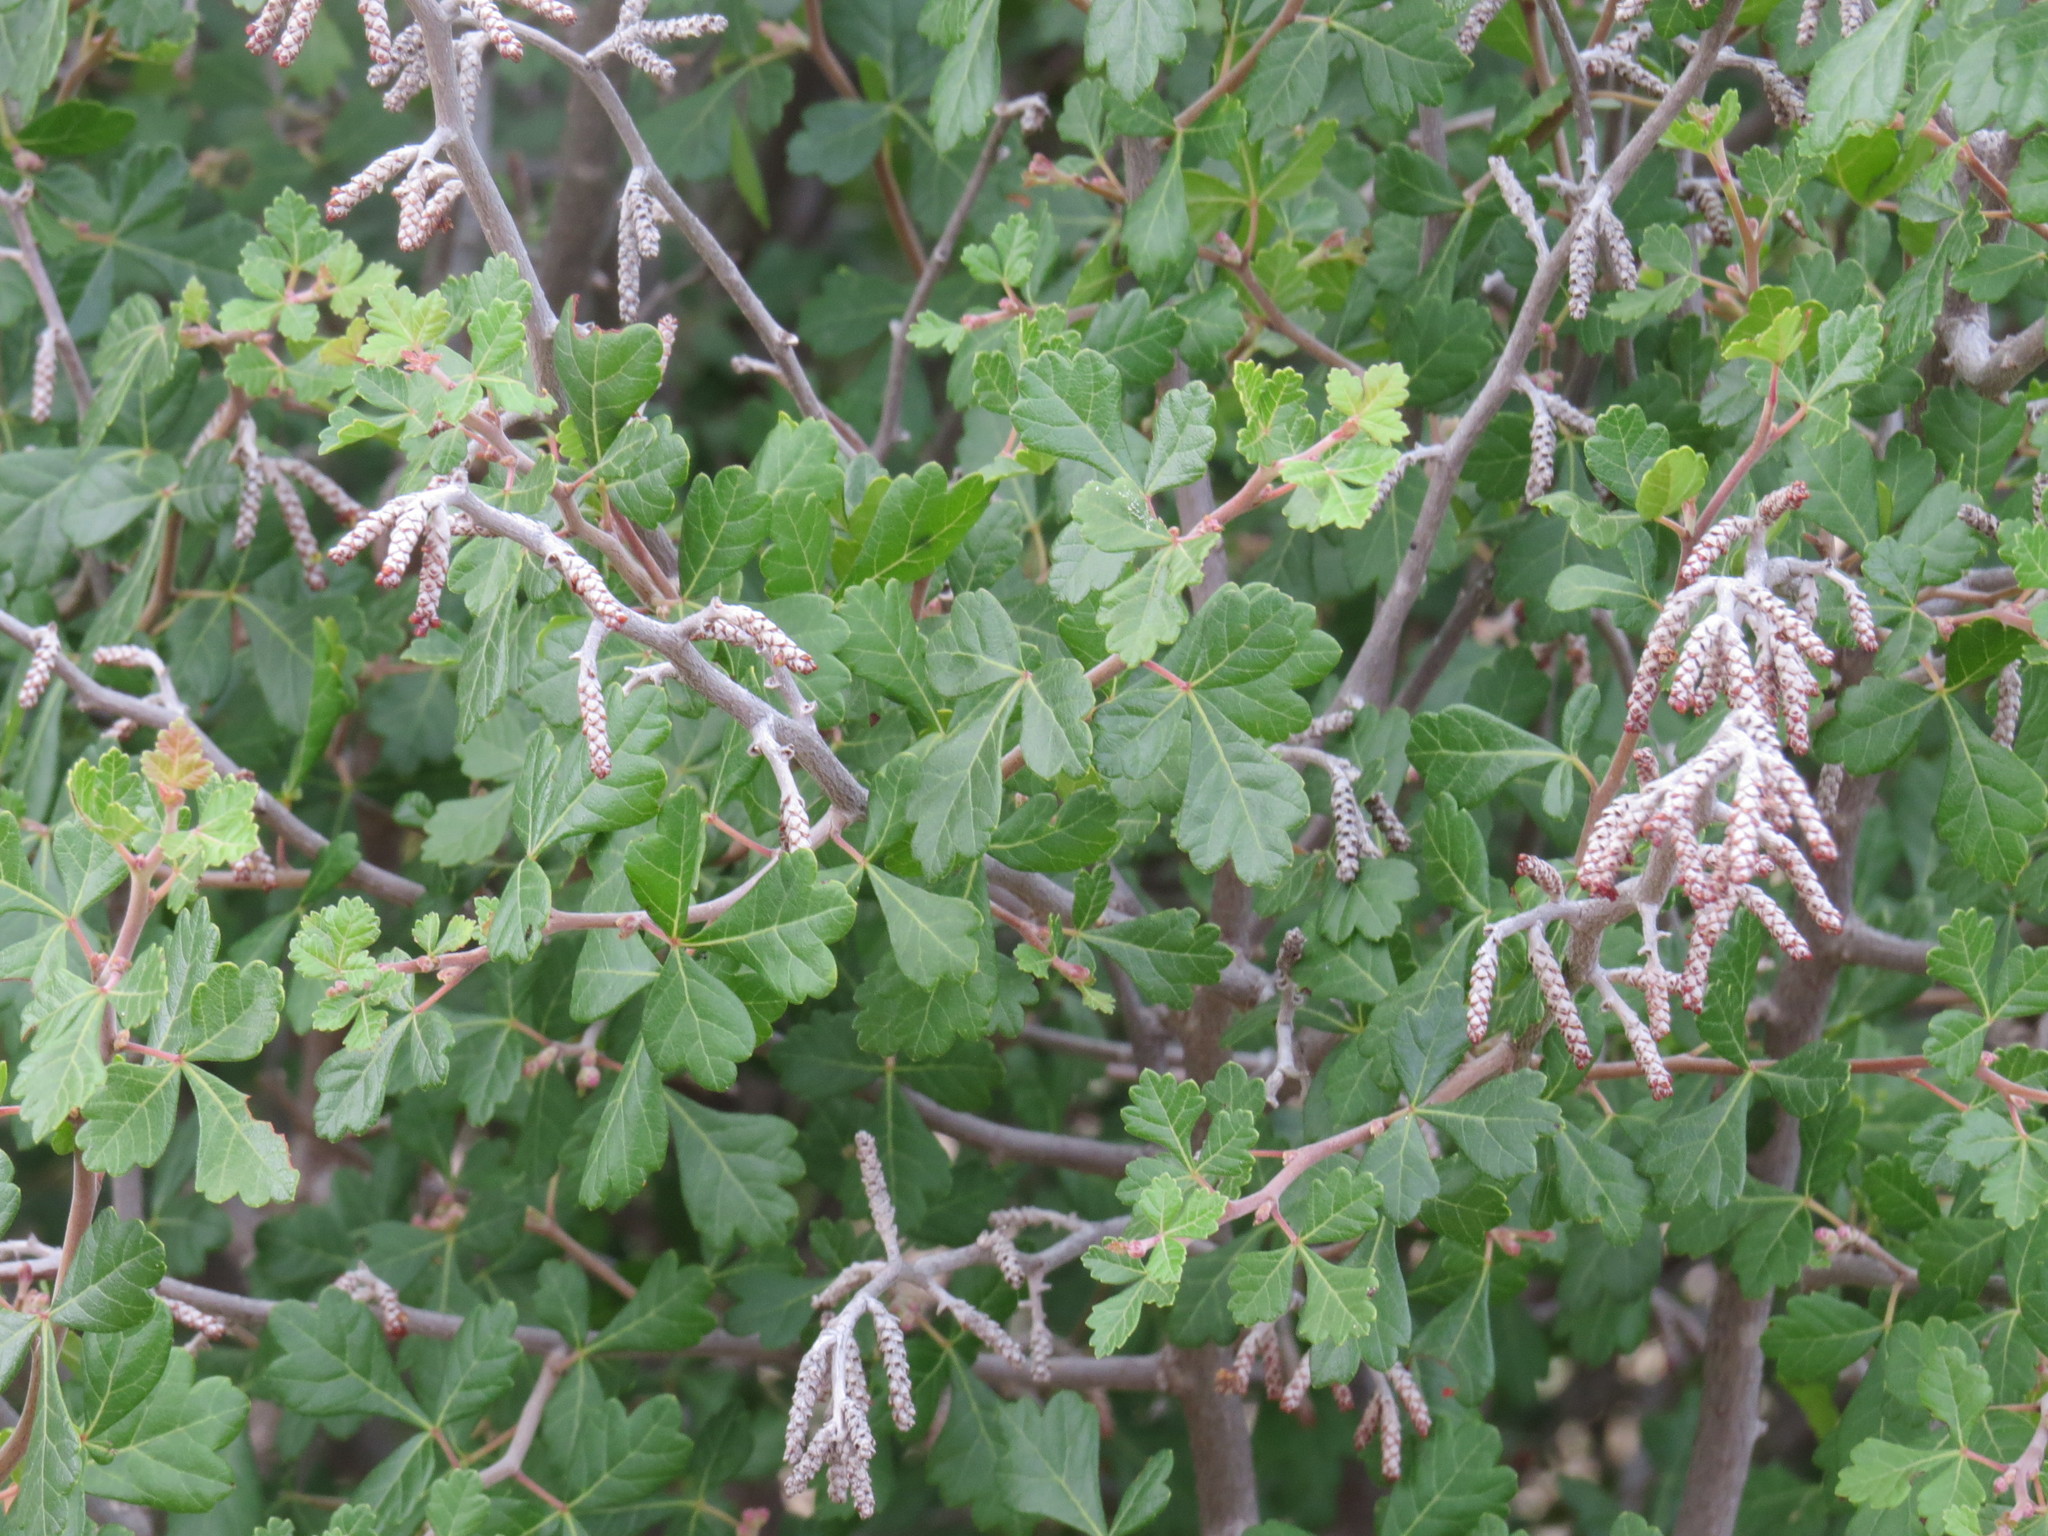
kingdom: Plantae
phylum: Tracheophyta
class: Magnoliopsida
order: Sapindales
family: Anacardiaceae
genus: Rhus
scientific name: Rhus aromatica
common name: Aromatic sumac
